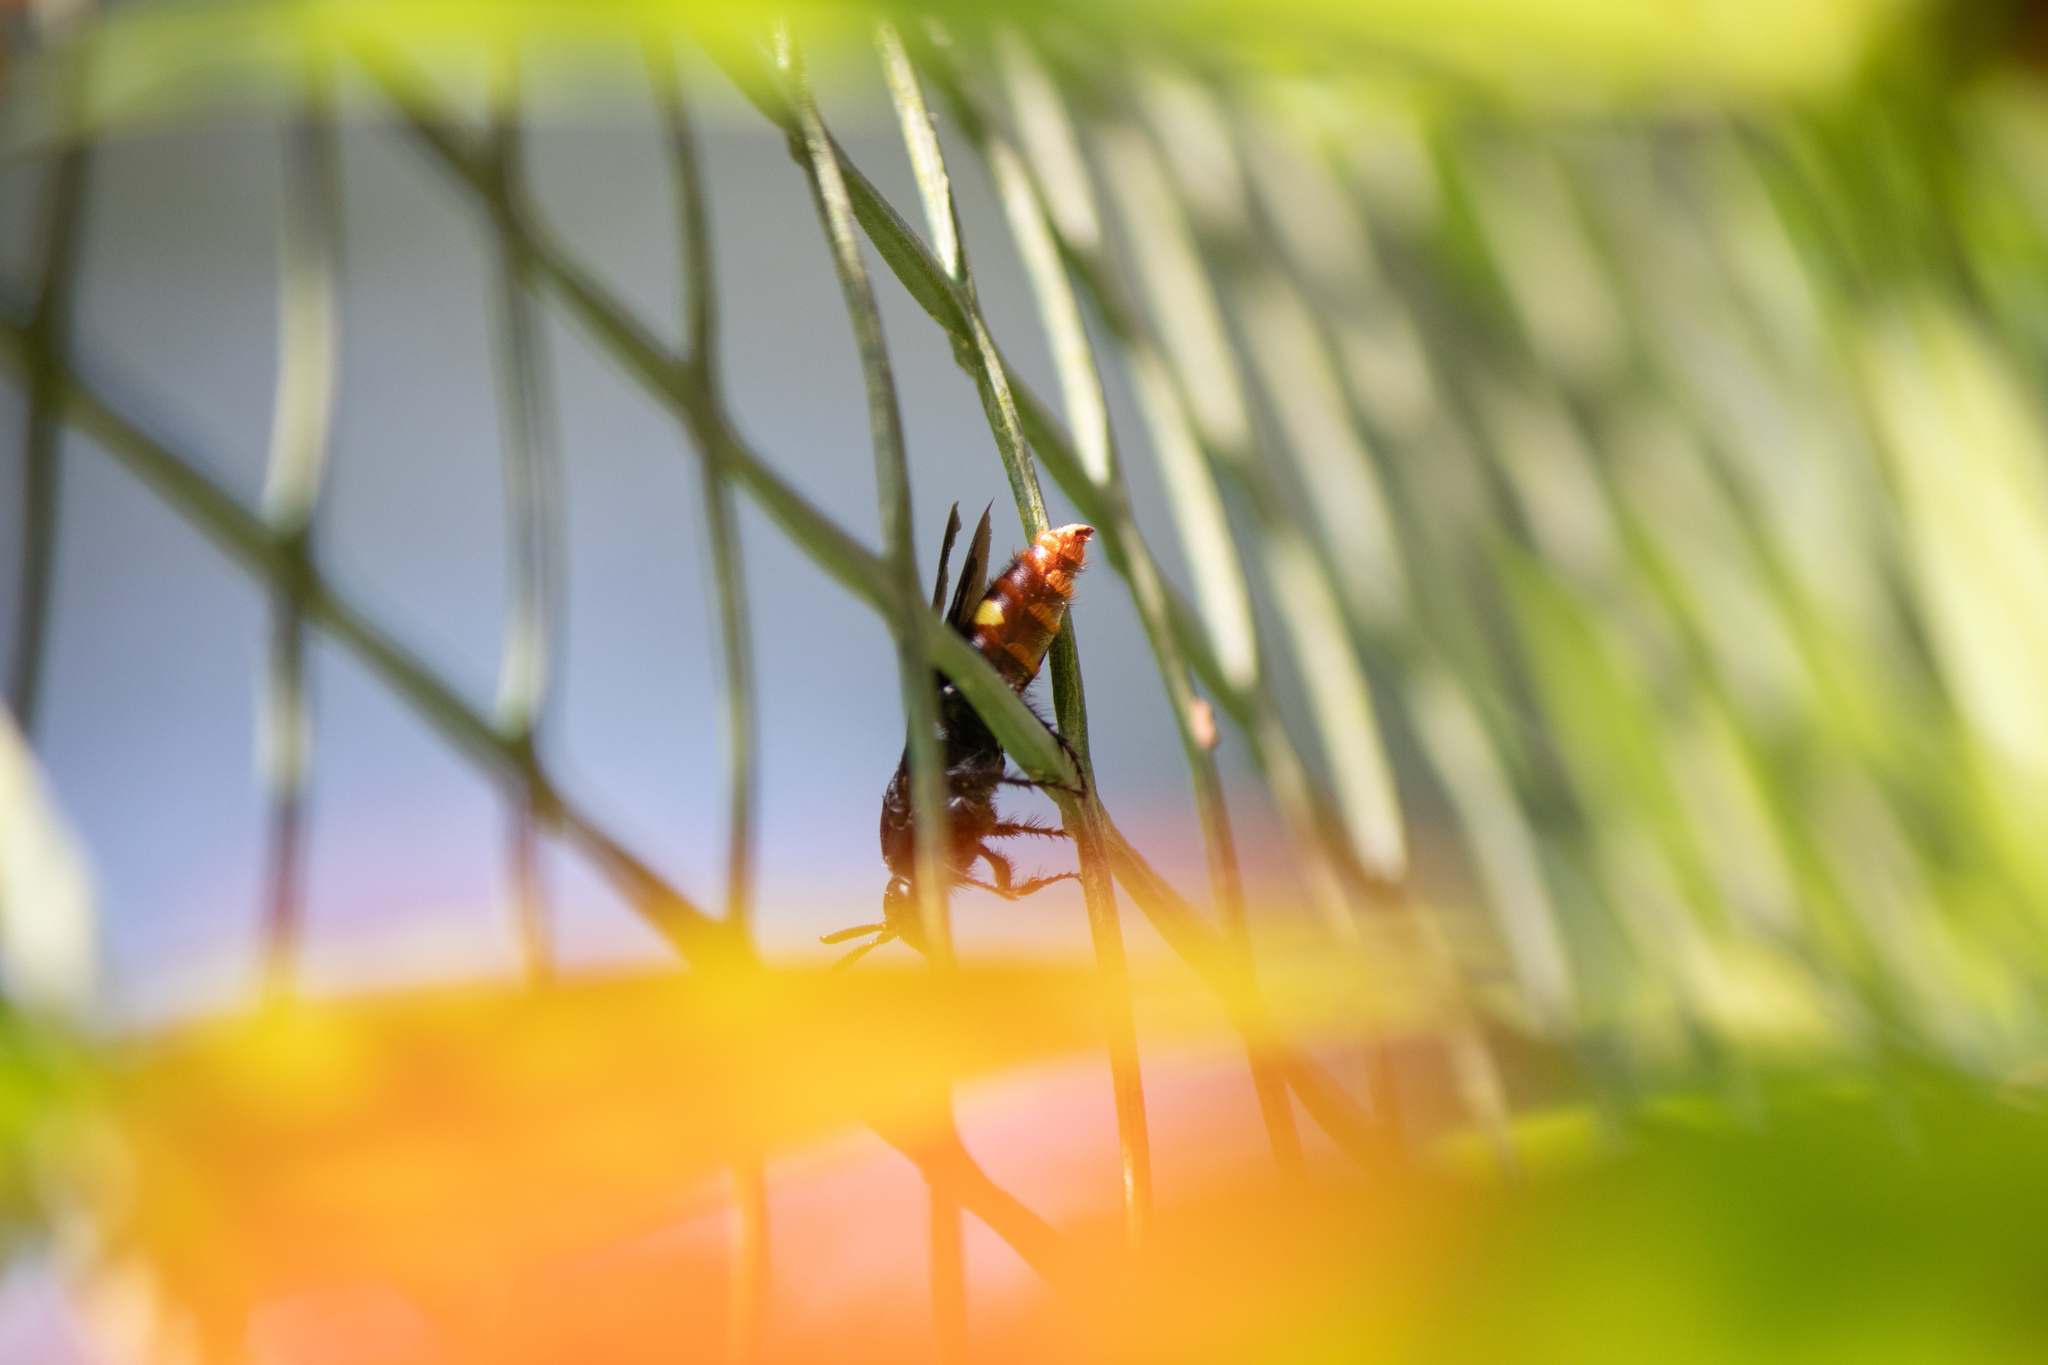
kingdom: Animalia
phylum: Arthropoda
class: Insecta
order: Hymenoptera
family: Scoliidae
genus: Scolia
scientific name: Scolia dubia
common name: Blue-winged scoliid wasp
